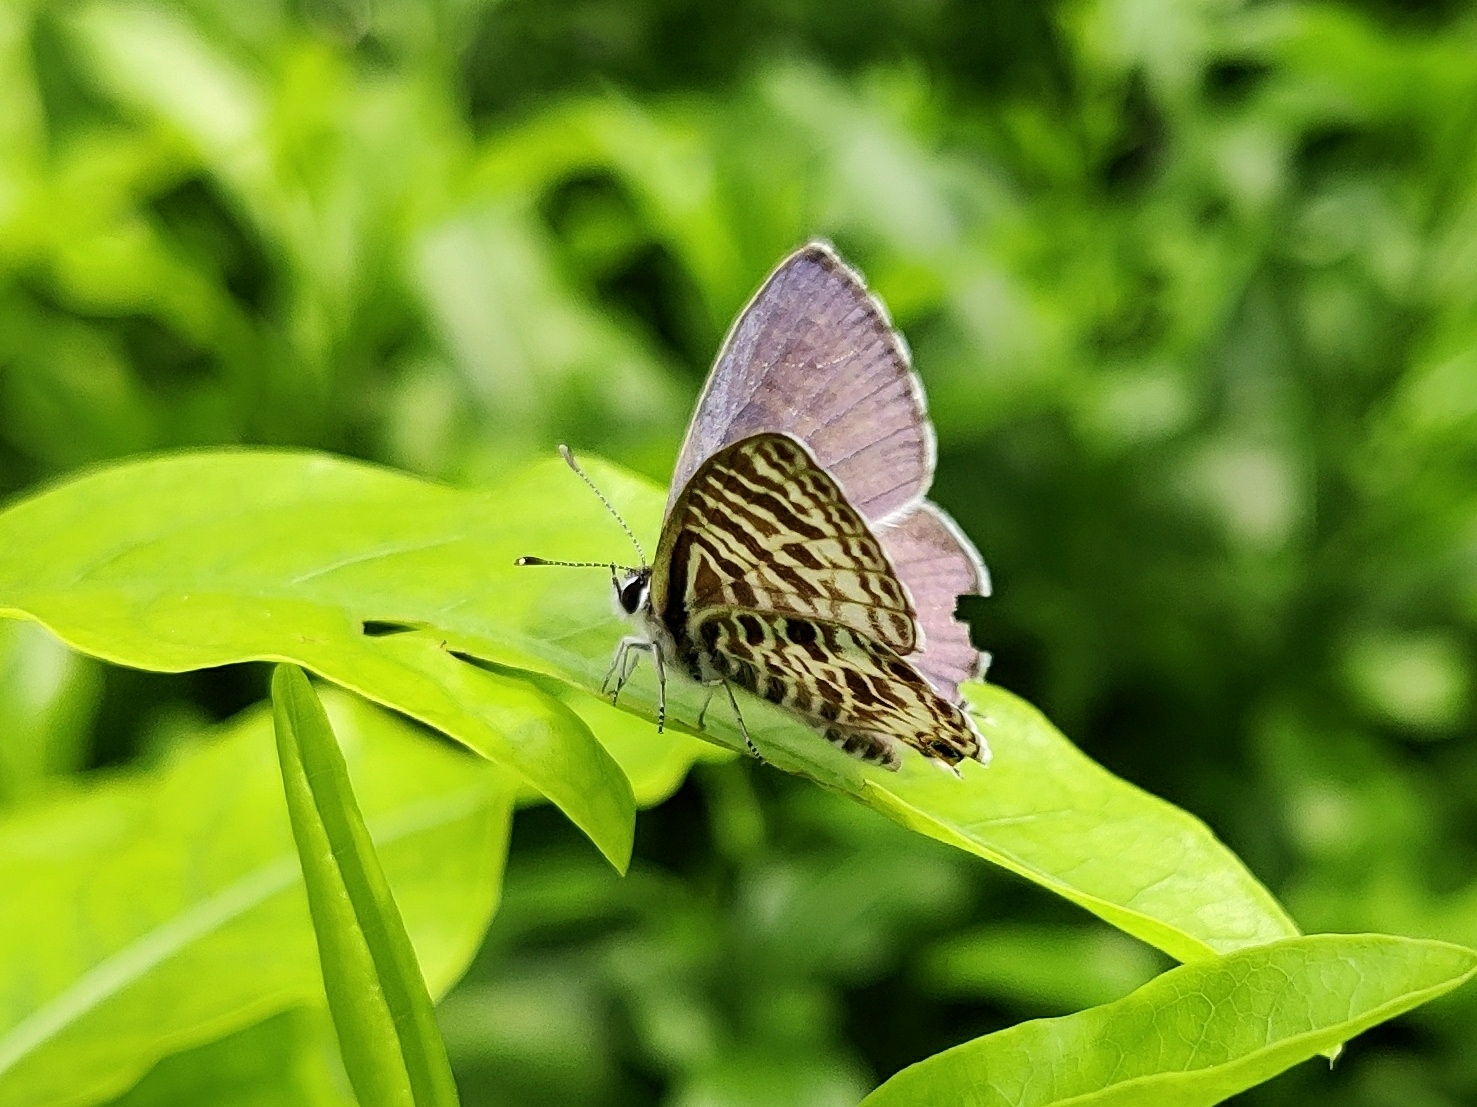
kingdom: Animalia
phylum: Arthropoda
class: Insecta
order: Lepidoptera
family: Lycaenidae
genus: Leptotes
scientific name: Leptotes plinius
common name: Zebra blue
